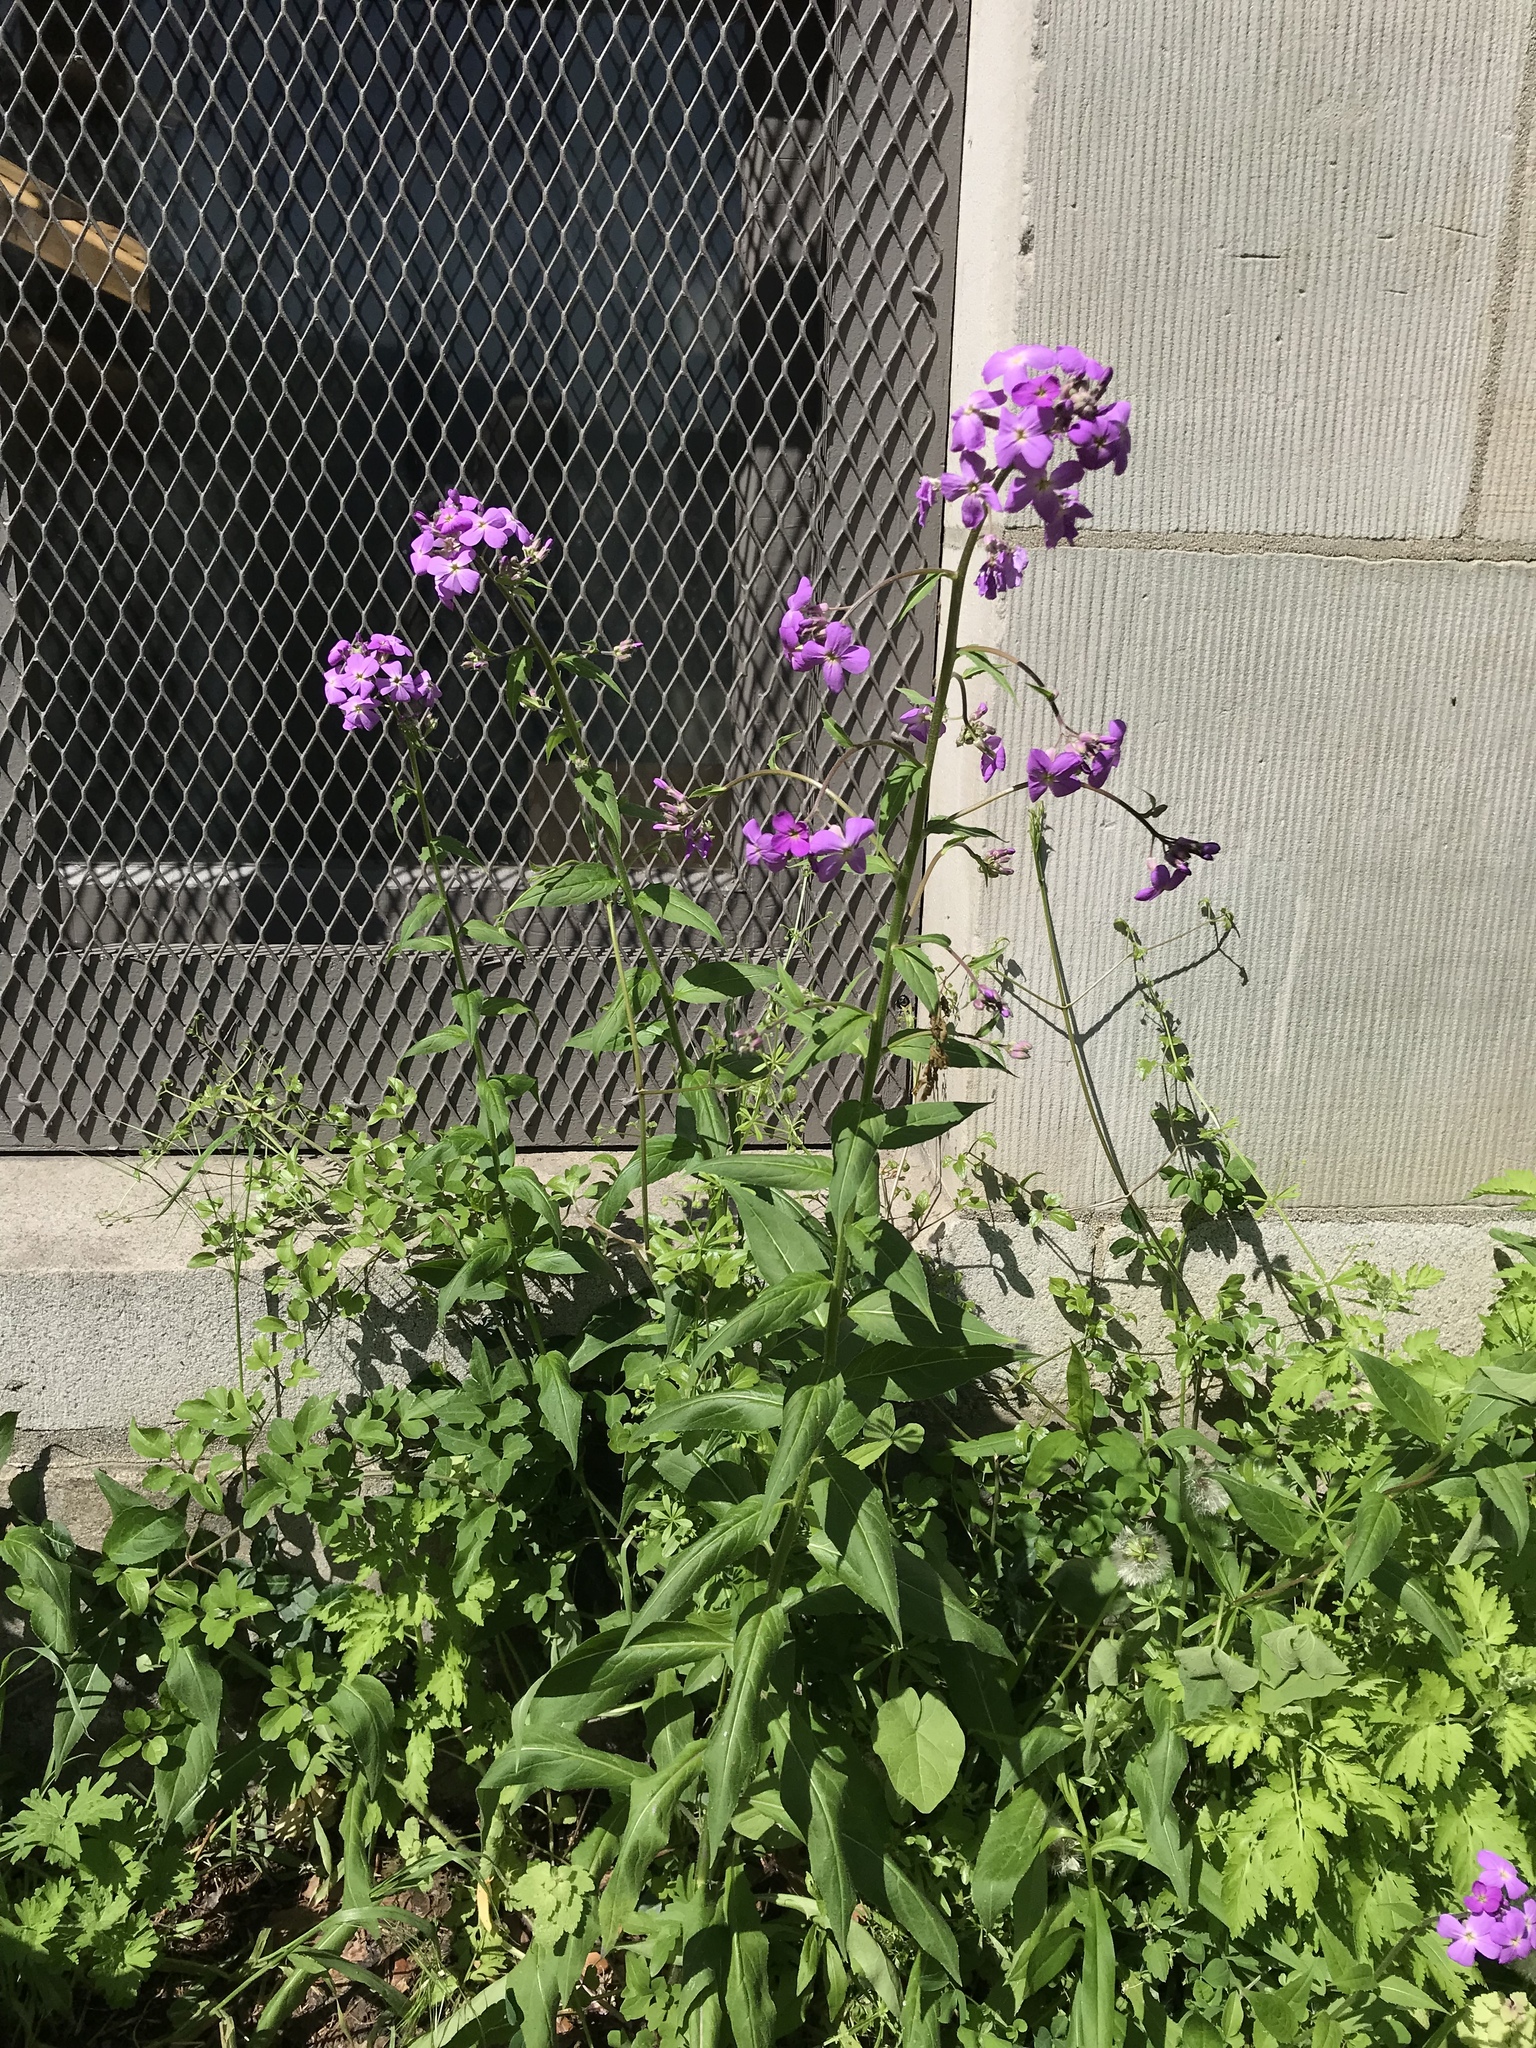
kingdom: Plantae
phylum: Tracheophyta
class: Magnoliopsida
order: Brassicales
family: Brassicaceae
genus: Hesperis
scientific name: Hesperis matronalis
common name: Dame's-violet
